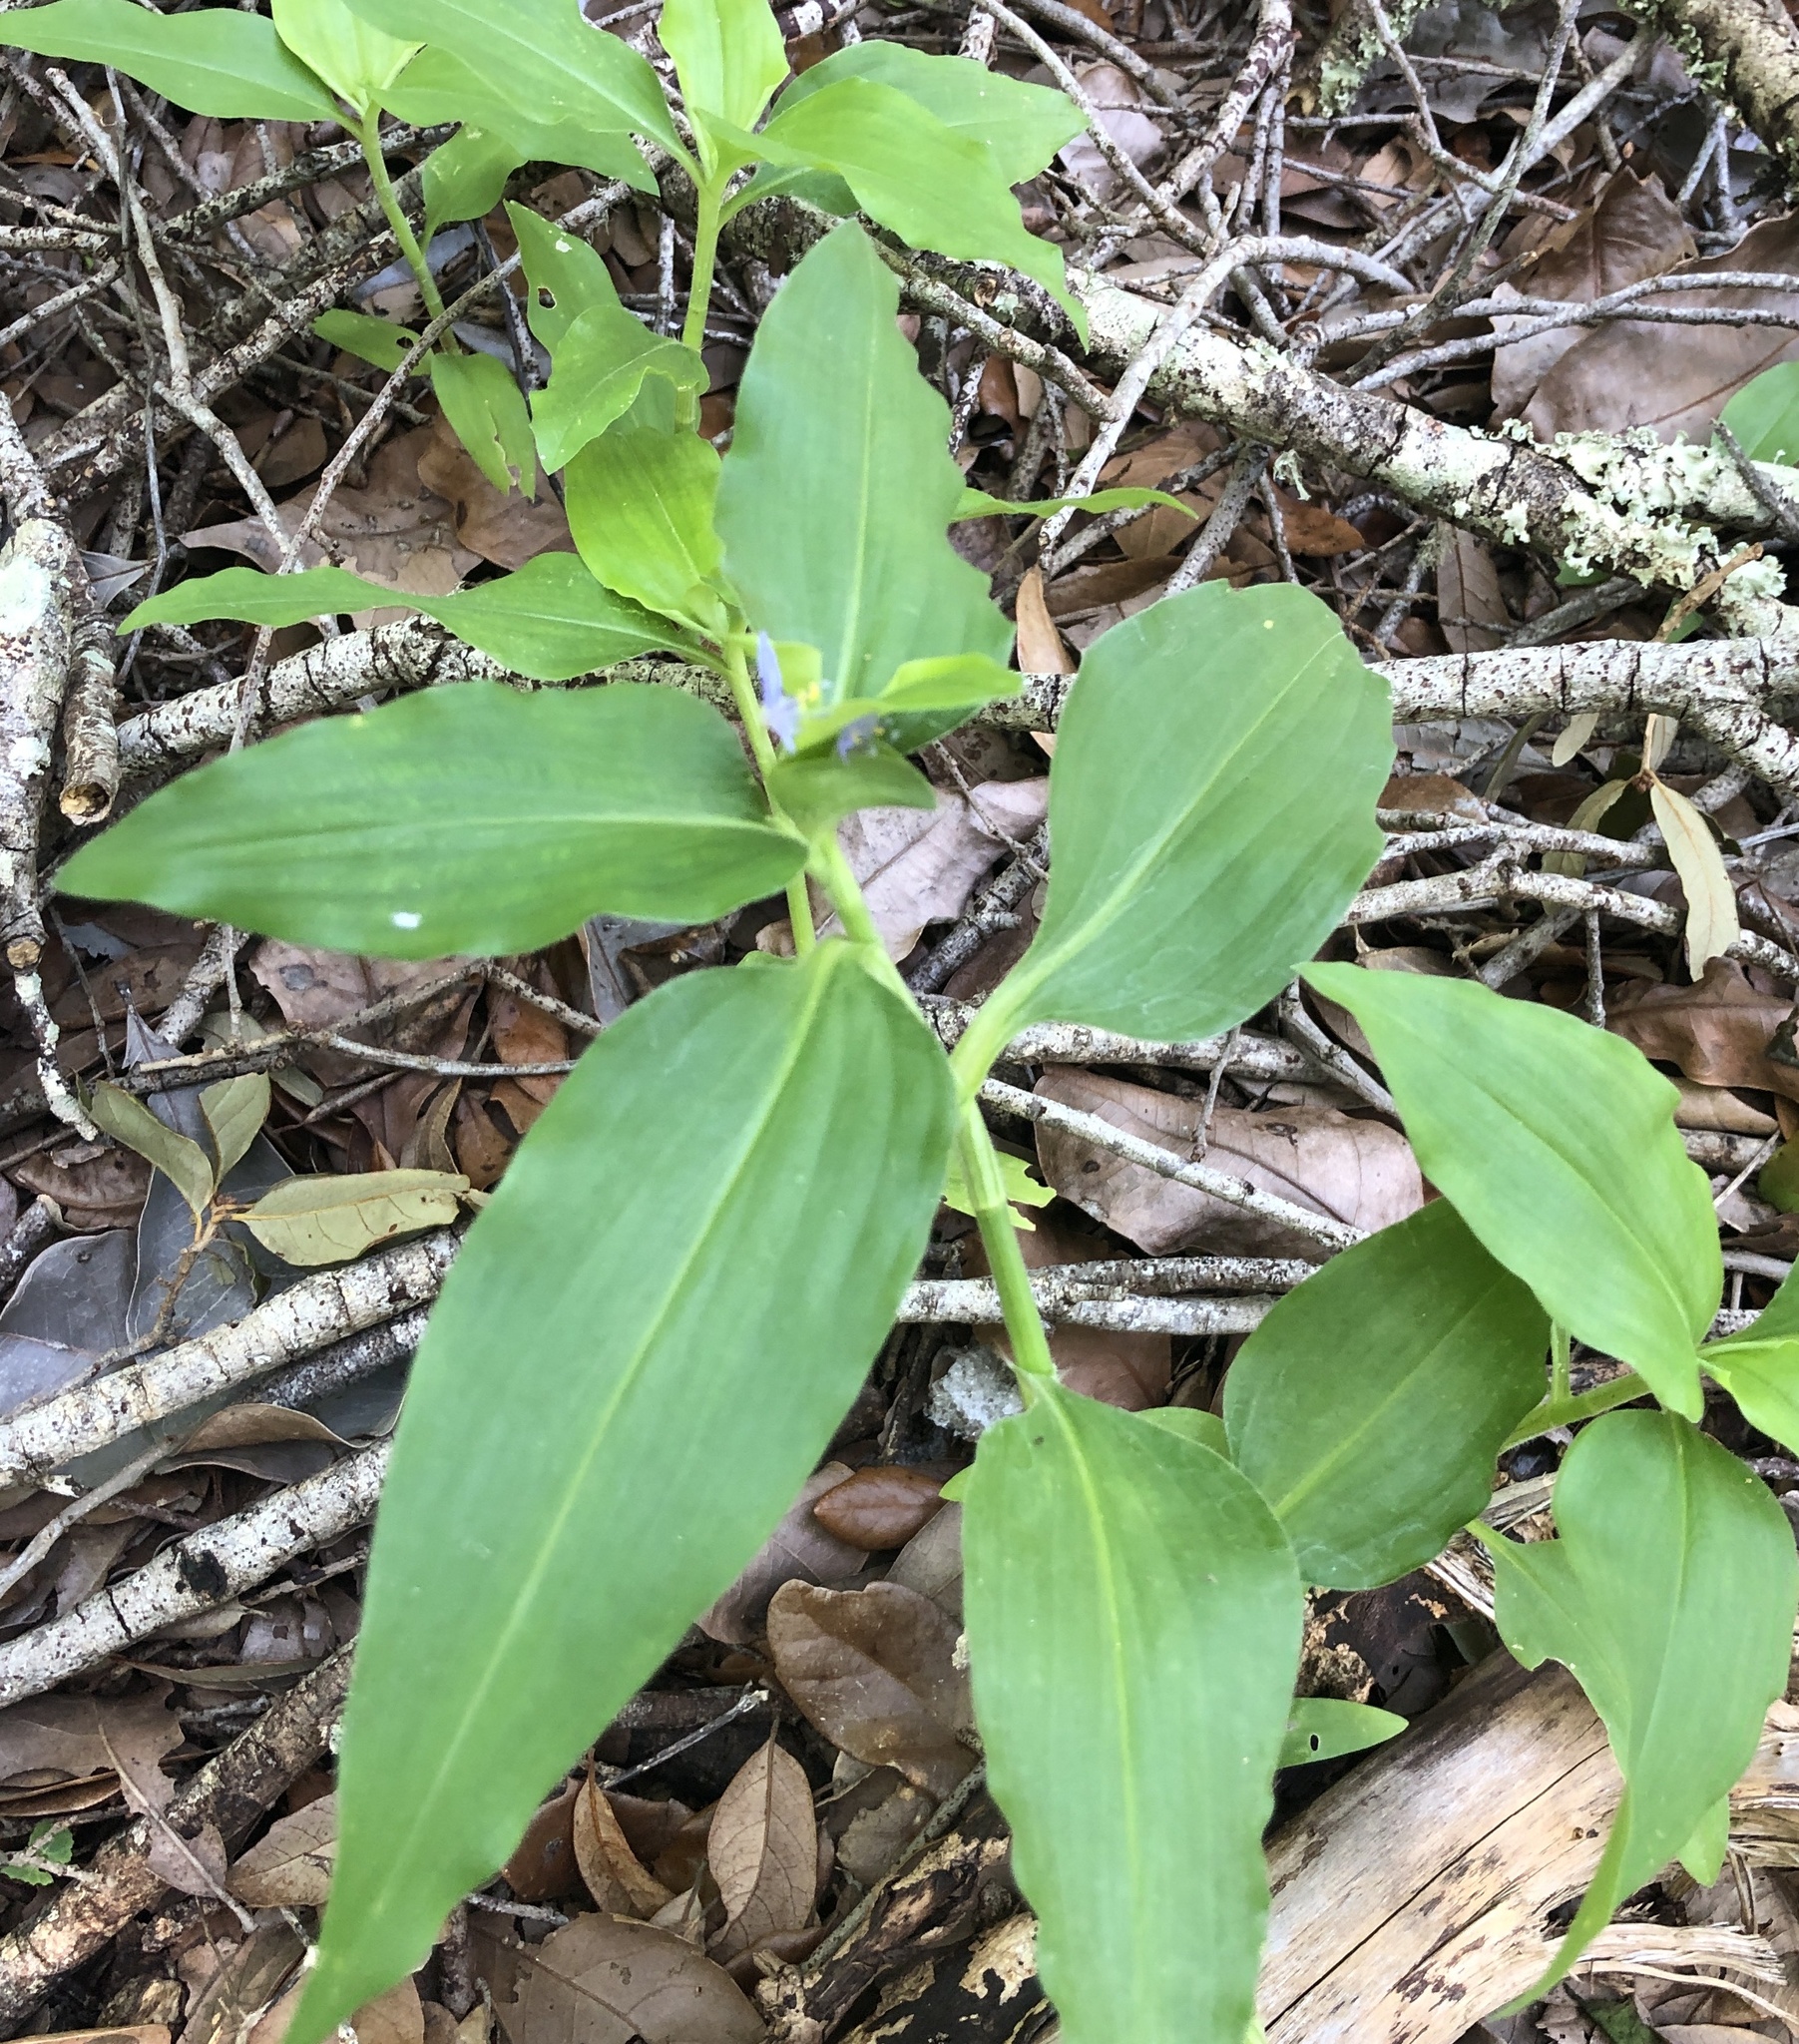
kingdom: Plantae
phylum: Tracheophyta
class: Liliopsida
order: Commelinales
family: Commelinaceae
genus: Commelina
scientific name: Commelina benghalensis
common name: Jio
